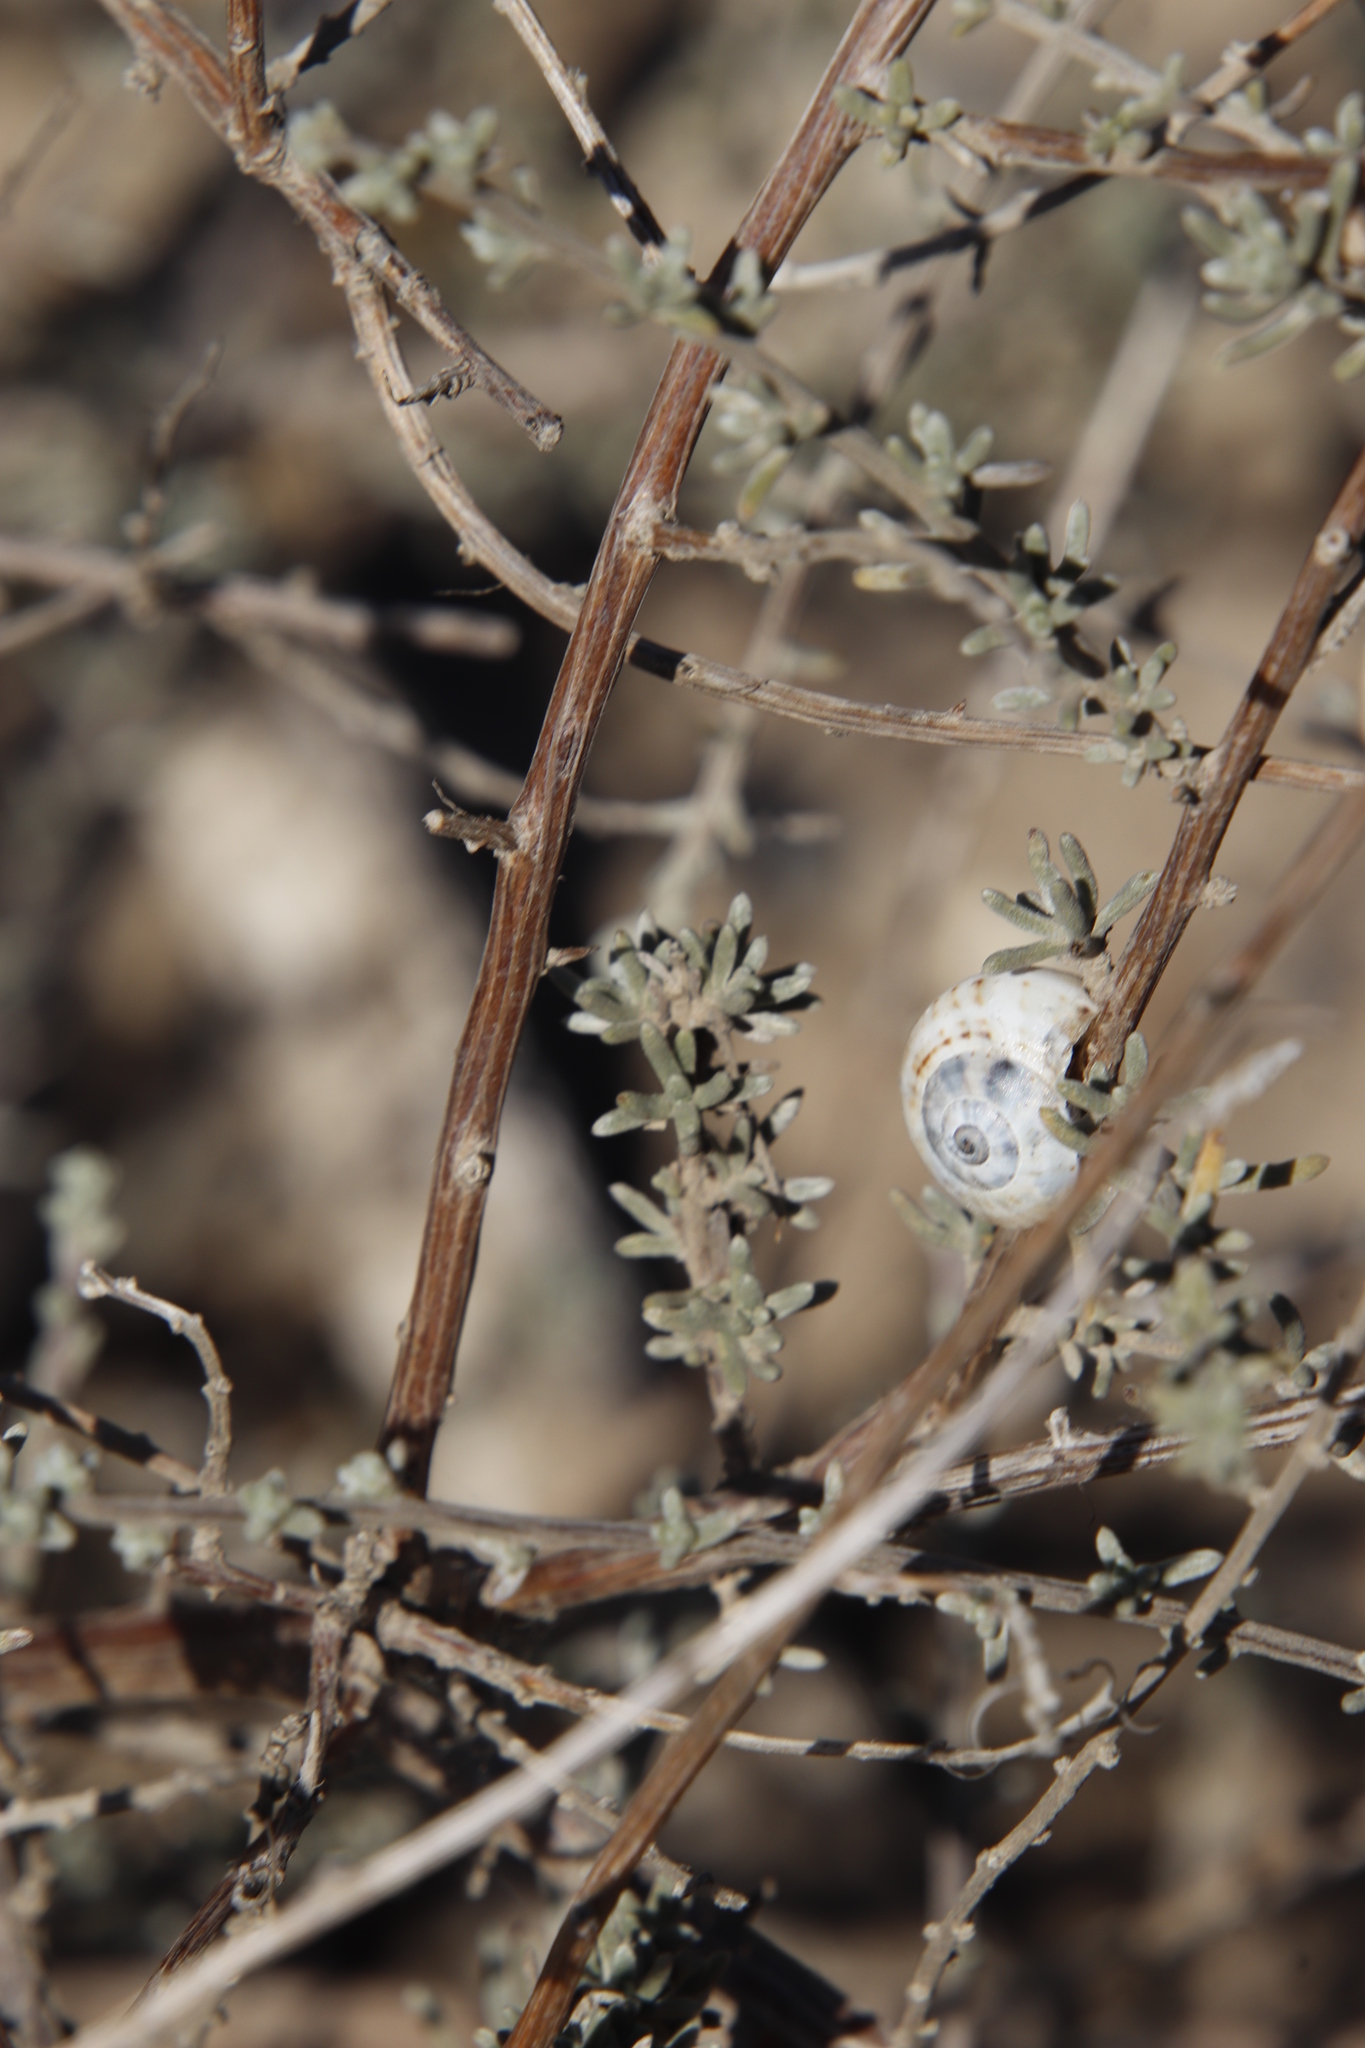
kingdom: Animalia
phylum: Mollusca
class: Gastropoda
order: Stylommatophora
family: Helicidae
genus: Theba
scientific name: Theba pisana
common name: White snail
